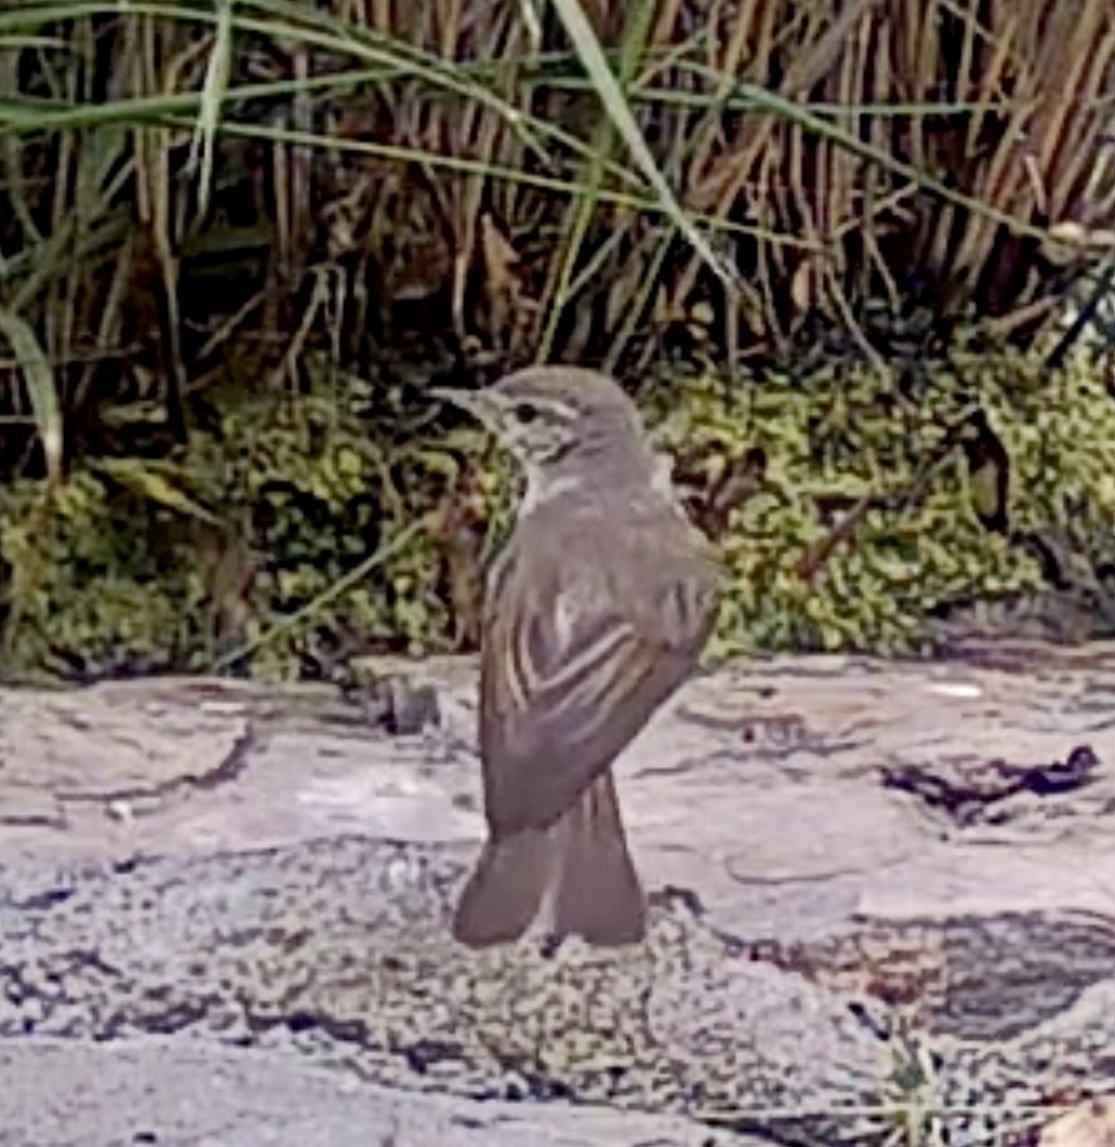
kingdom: Animalia
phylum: Chordata
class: Aves
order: Passeriformes
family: Phylloscopidae
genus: Phylloscopus
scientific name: Phylloscopus bonelli
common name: Western bonelli's warbler
